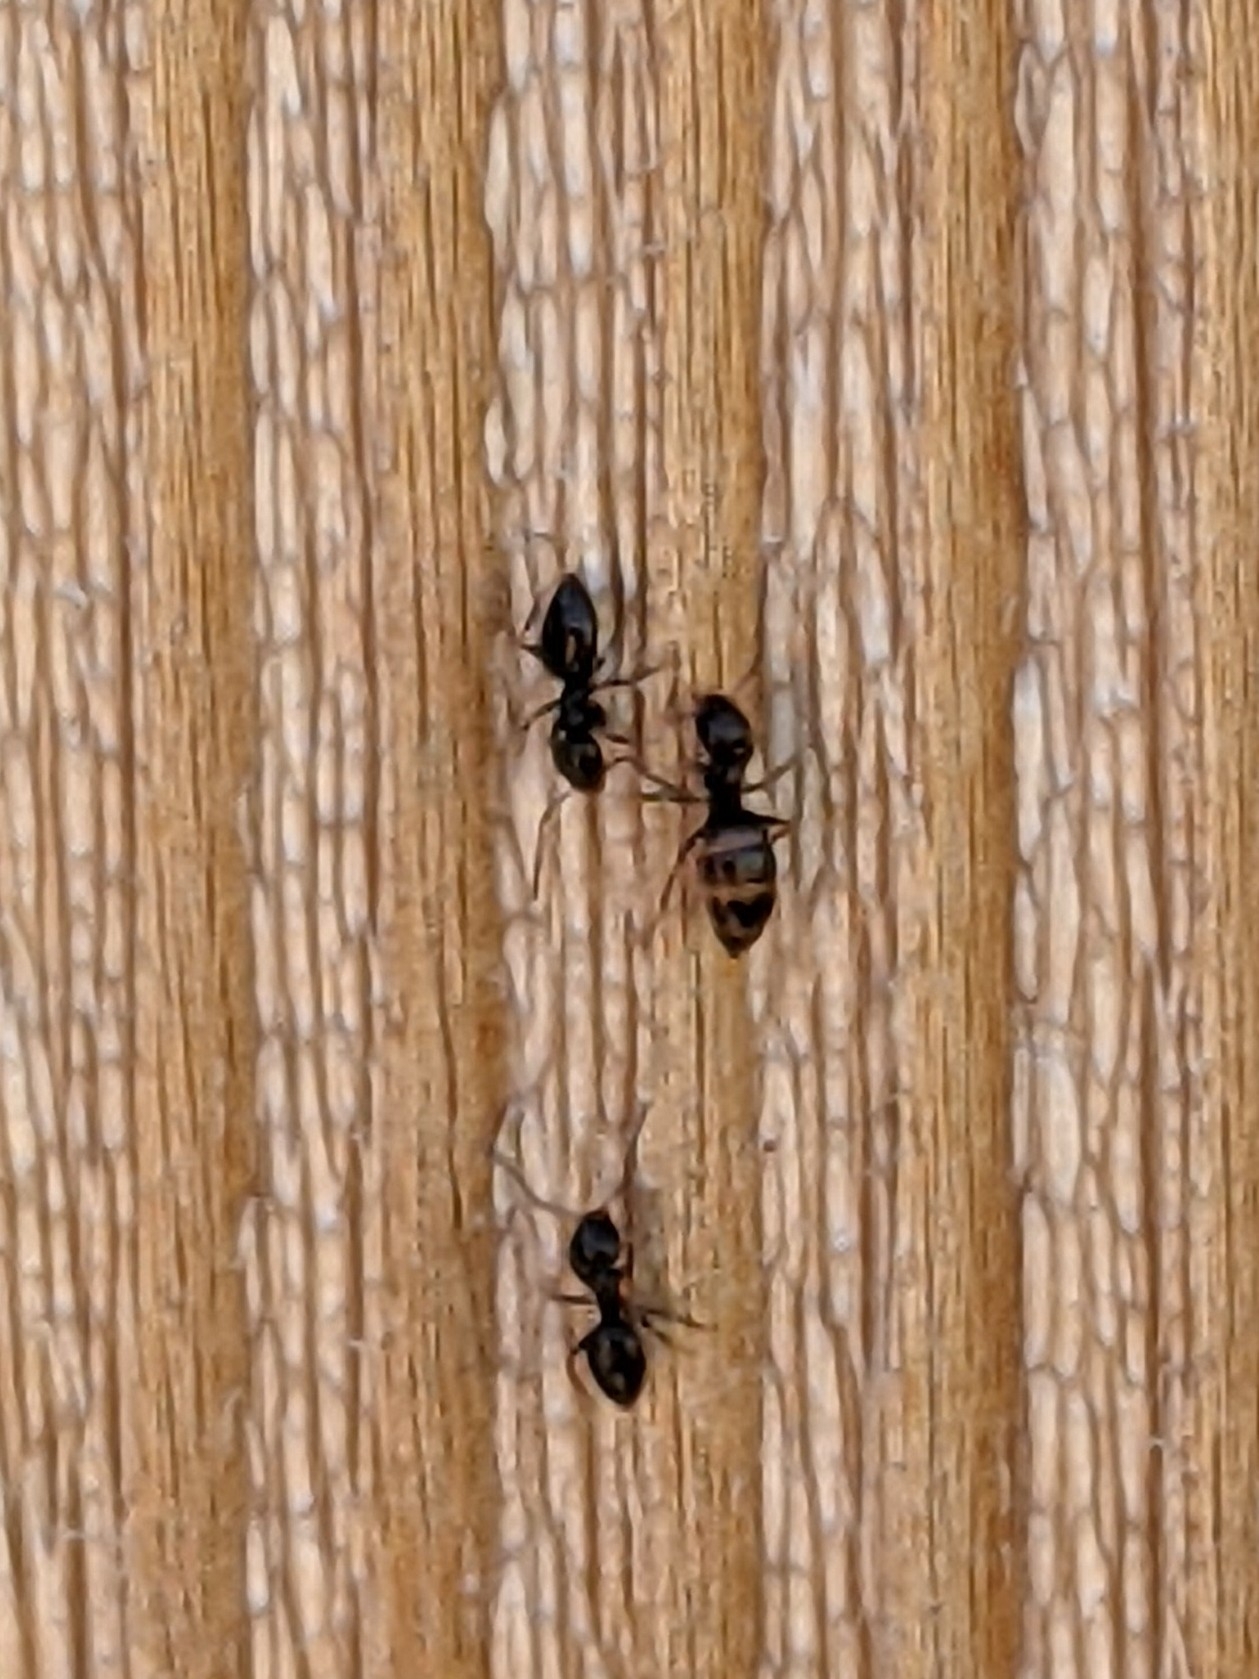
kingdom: Animalia
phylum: Arthropoda
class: Insecta
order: Hymenoptera
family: Formicidae
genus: Brachymyrmex
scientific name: Brachymyrmex patagonicus
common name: Dark rover ant
